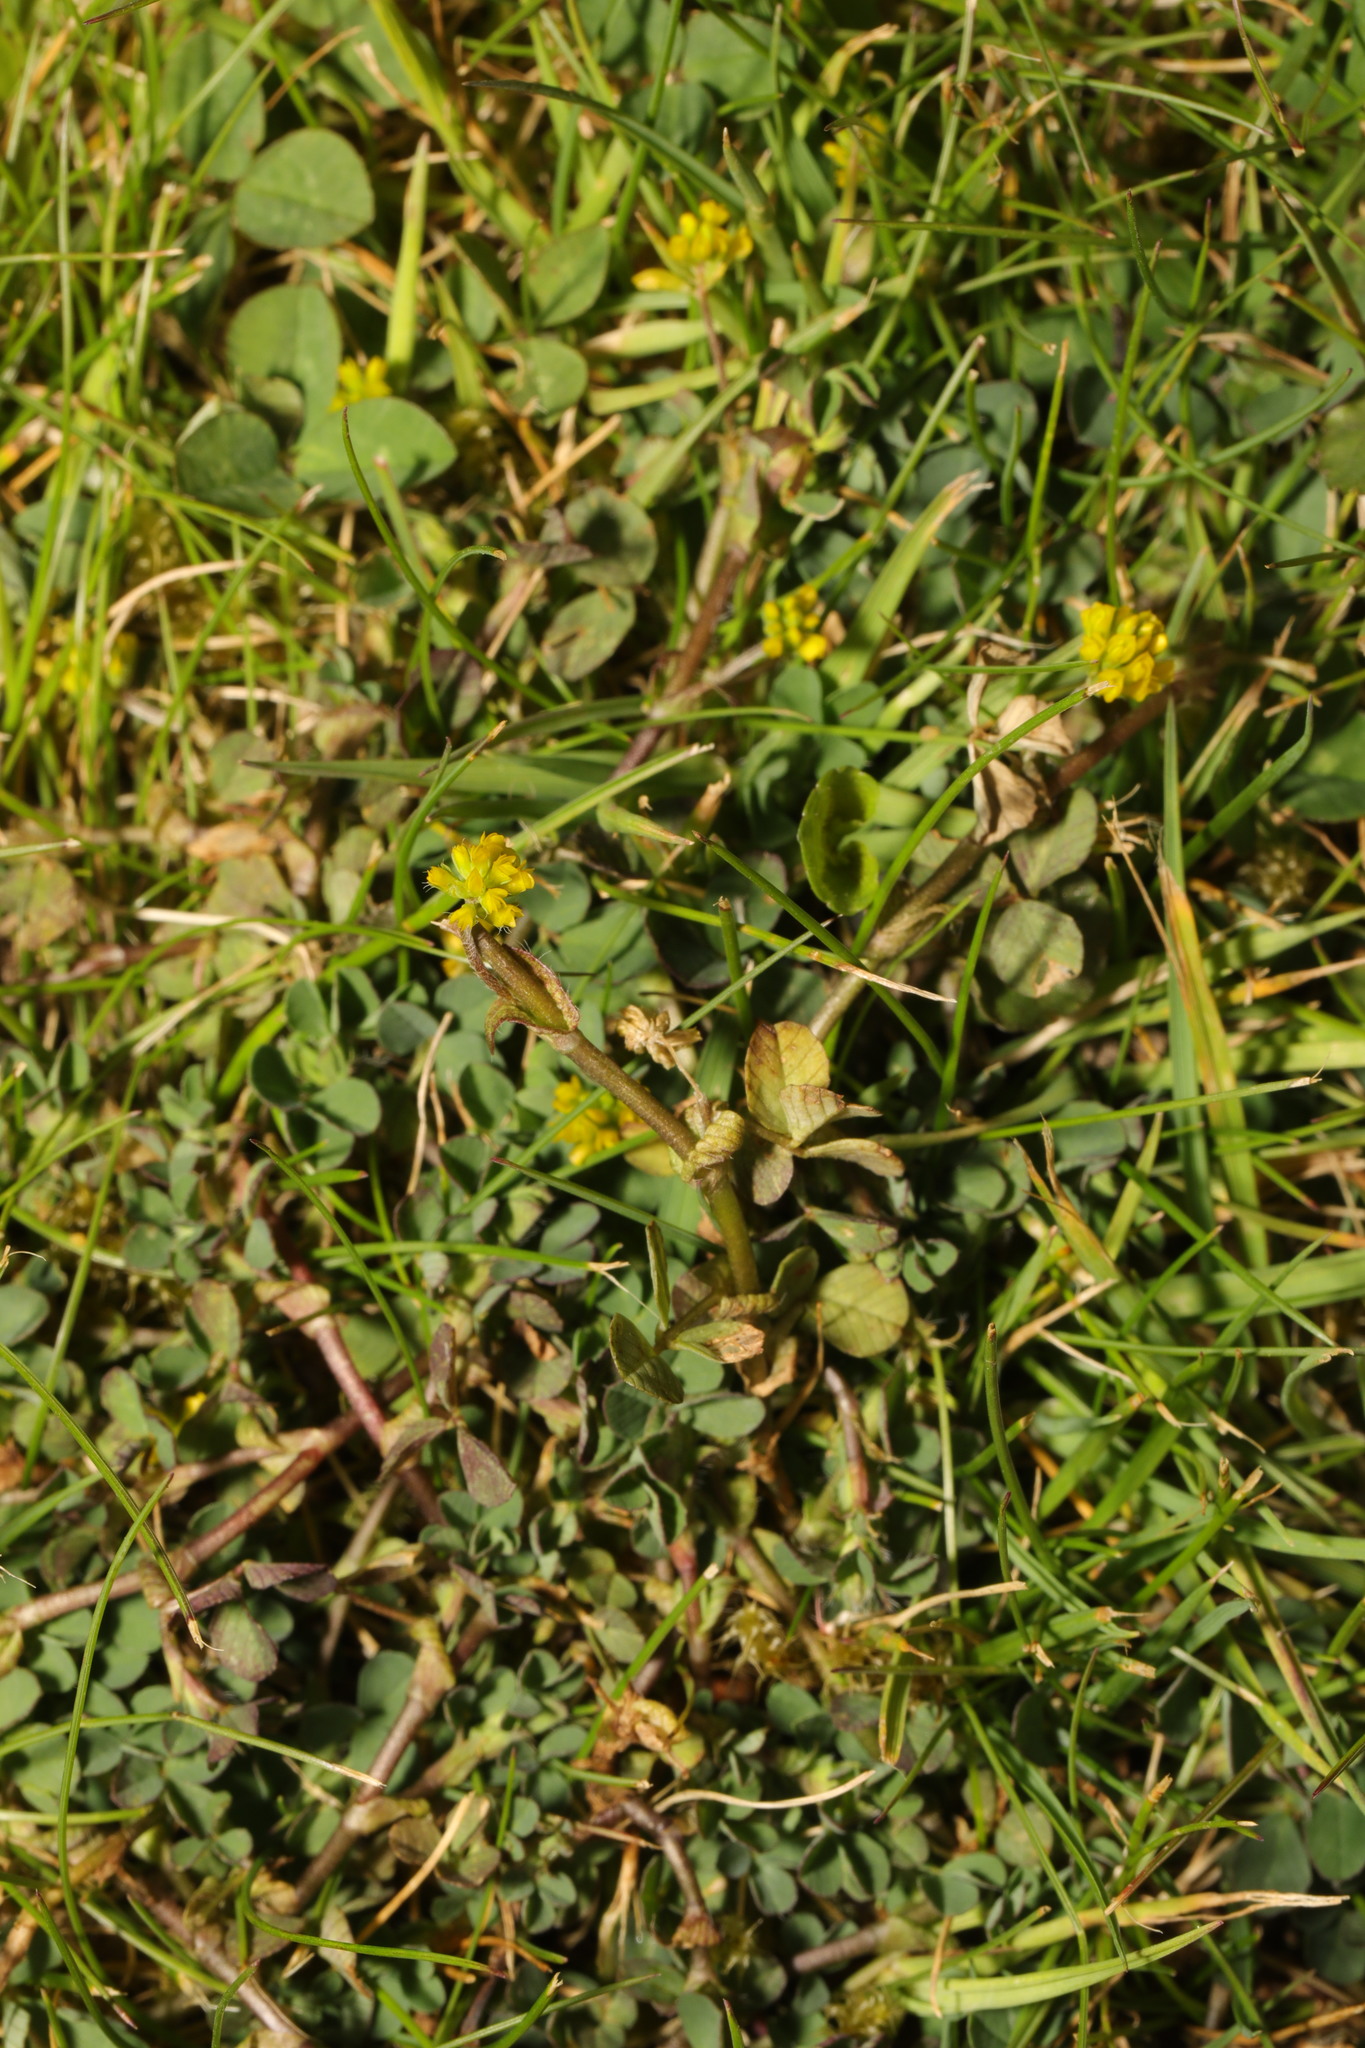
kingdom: Plantae
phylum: Tracheophyta
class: Magnoliopsida
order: Fabales
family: Fabaceae
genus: Trifolium
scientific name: Trifolium dubium
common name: Suckling clover
